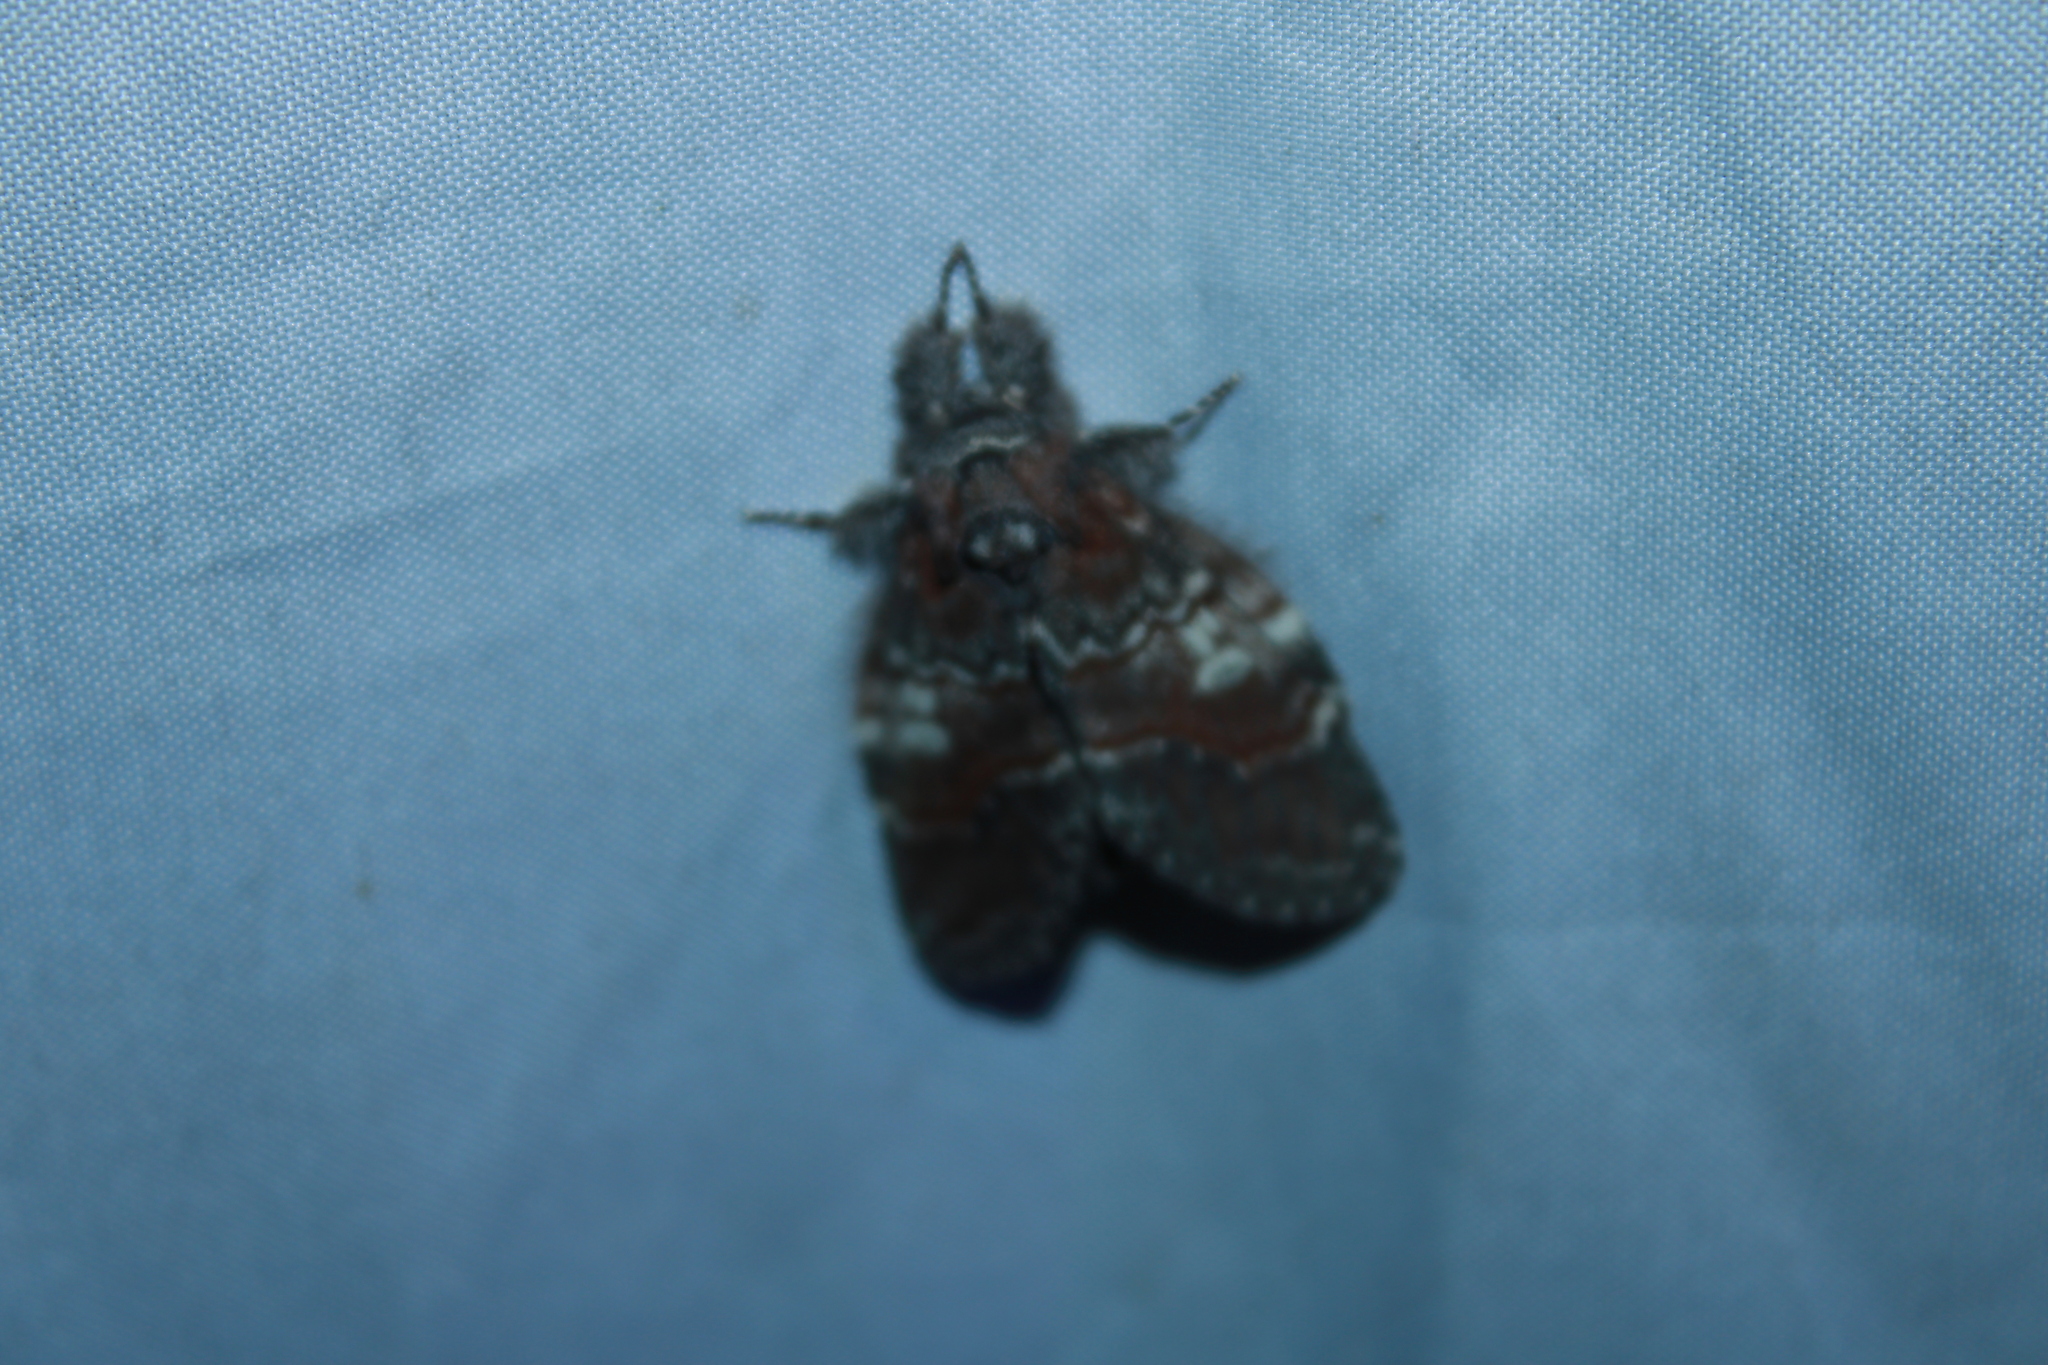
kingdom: Animalia
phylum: Arthropoda
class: Insecta
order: Lepidoptera
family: Notodontidae
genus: Peridea
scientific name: Peridea ferruginea
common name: Chocolate prominent
